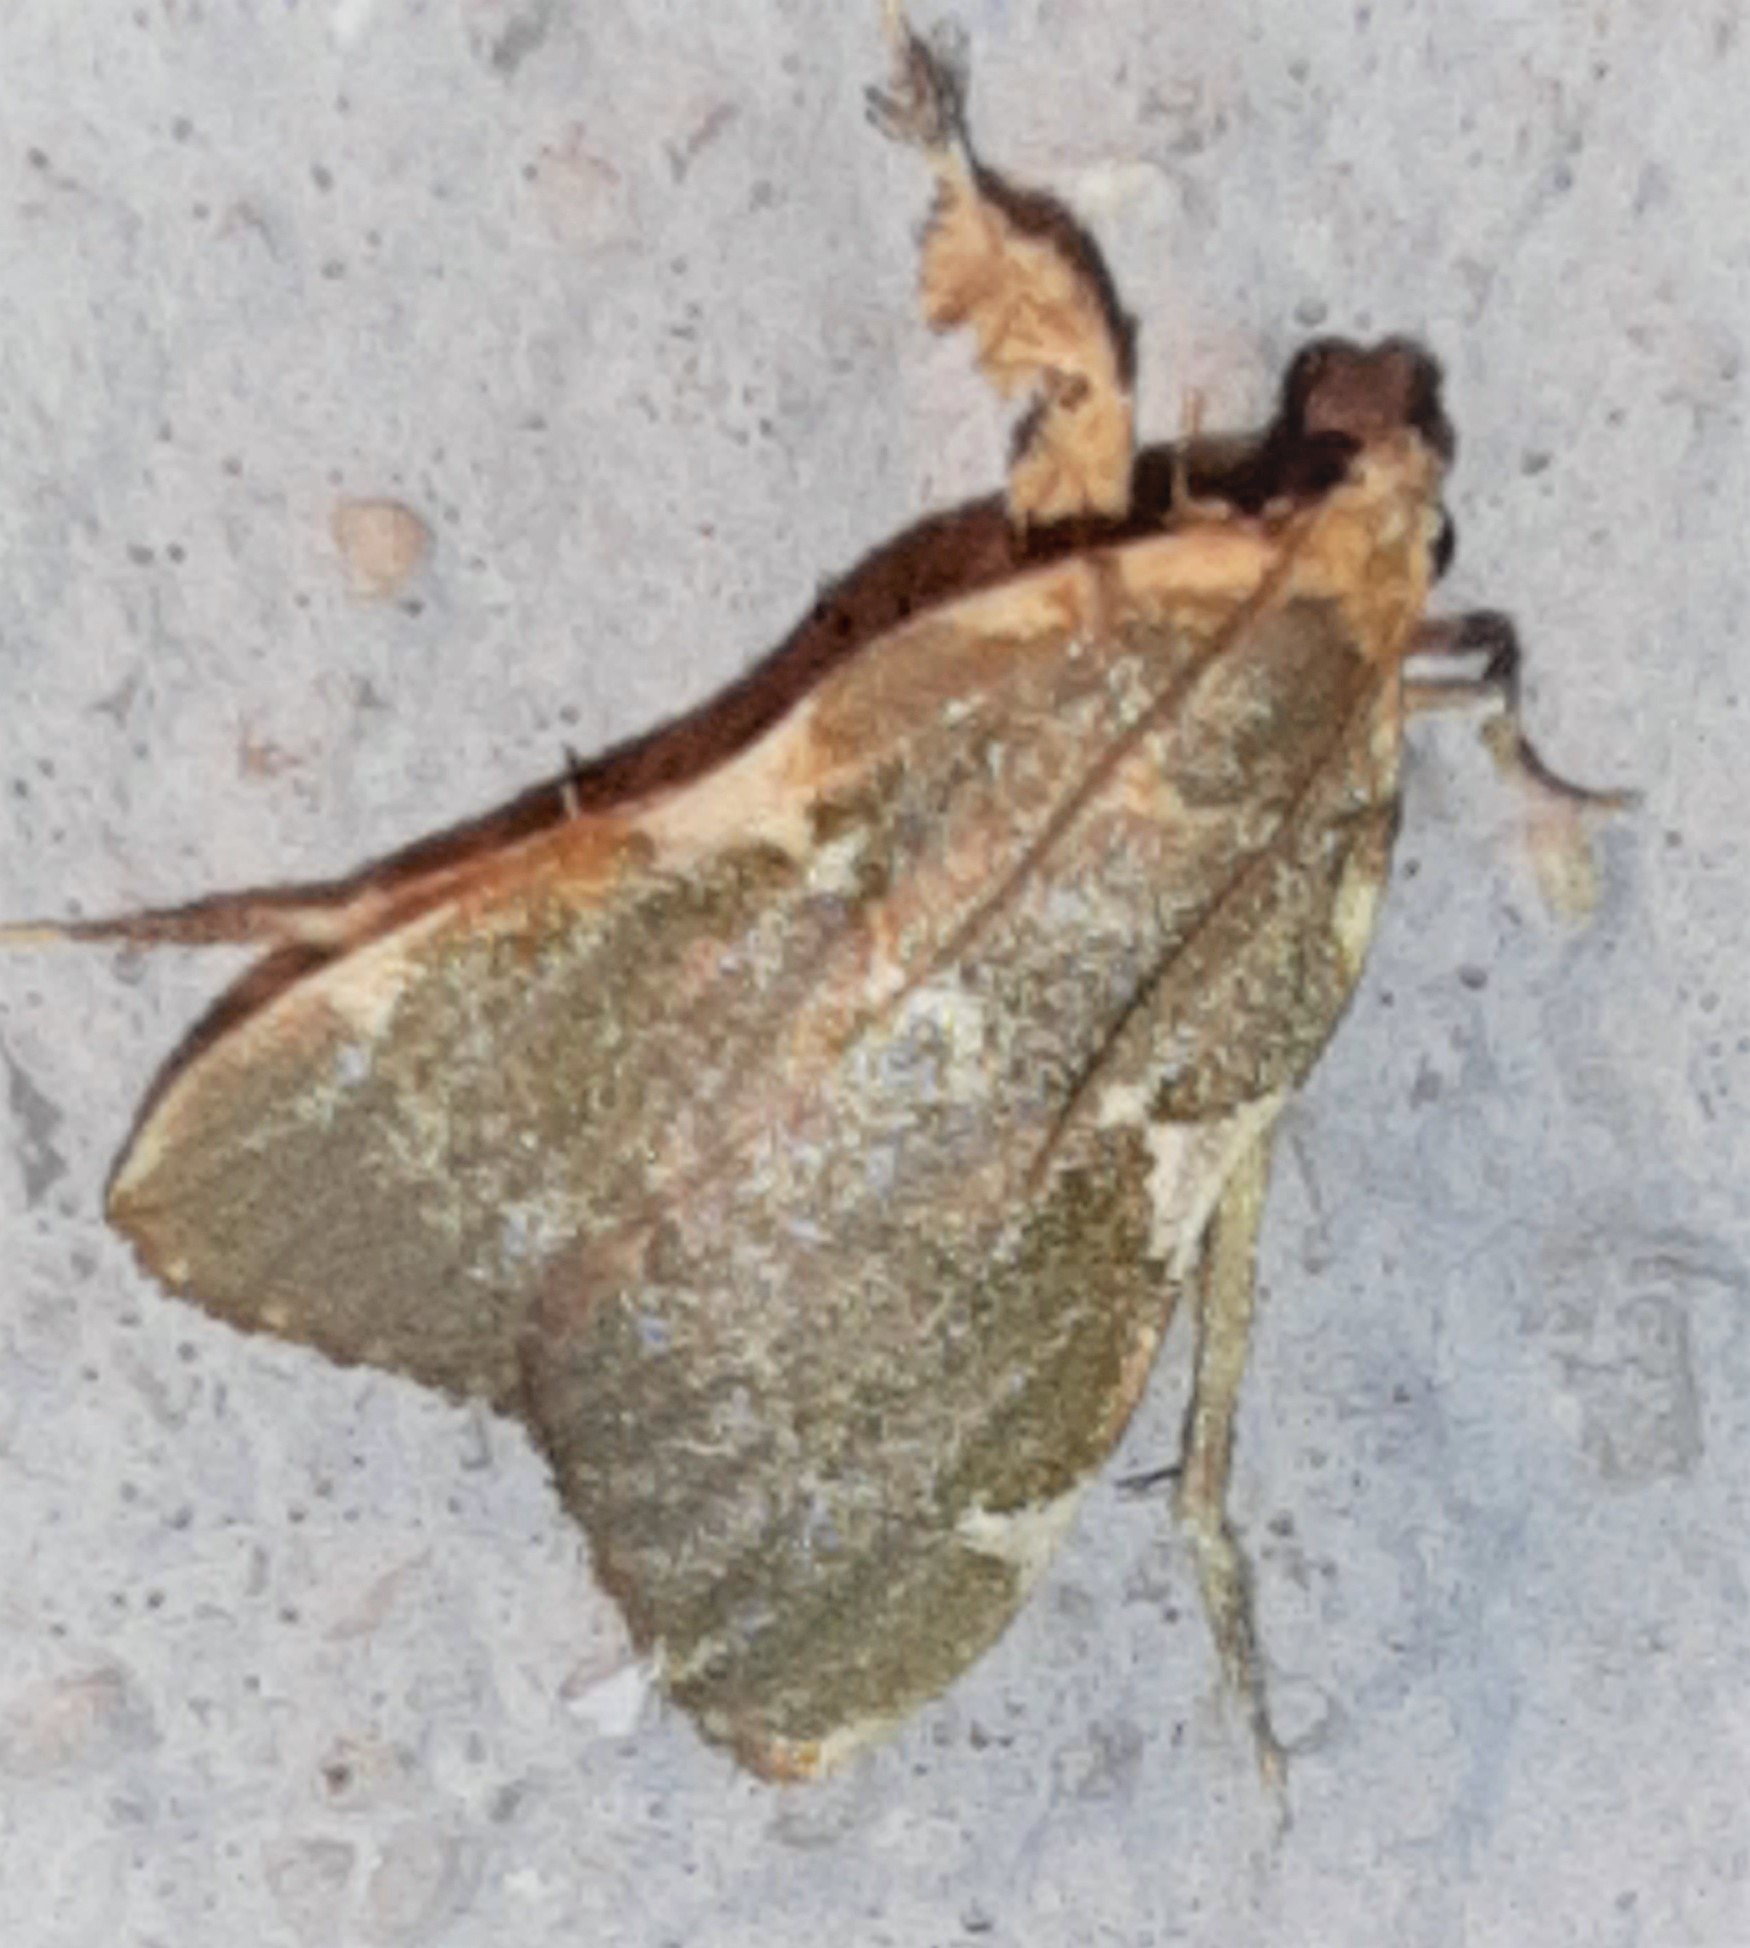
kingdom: Animalia
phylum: Arthropoda
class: Insecta
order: Lepidoptera
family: Pyralidae
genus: Parachma
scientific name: Parachma rufoflavalis
